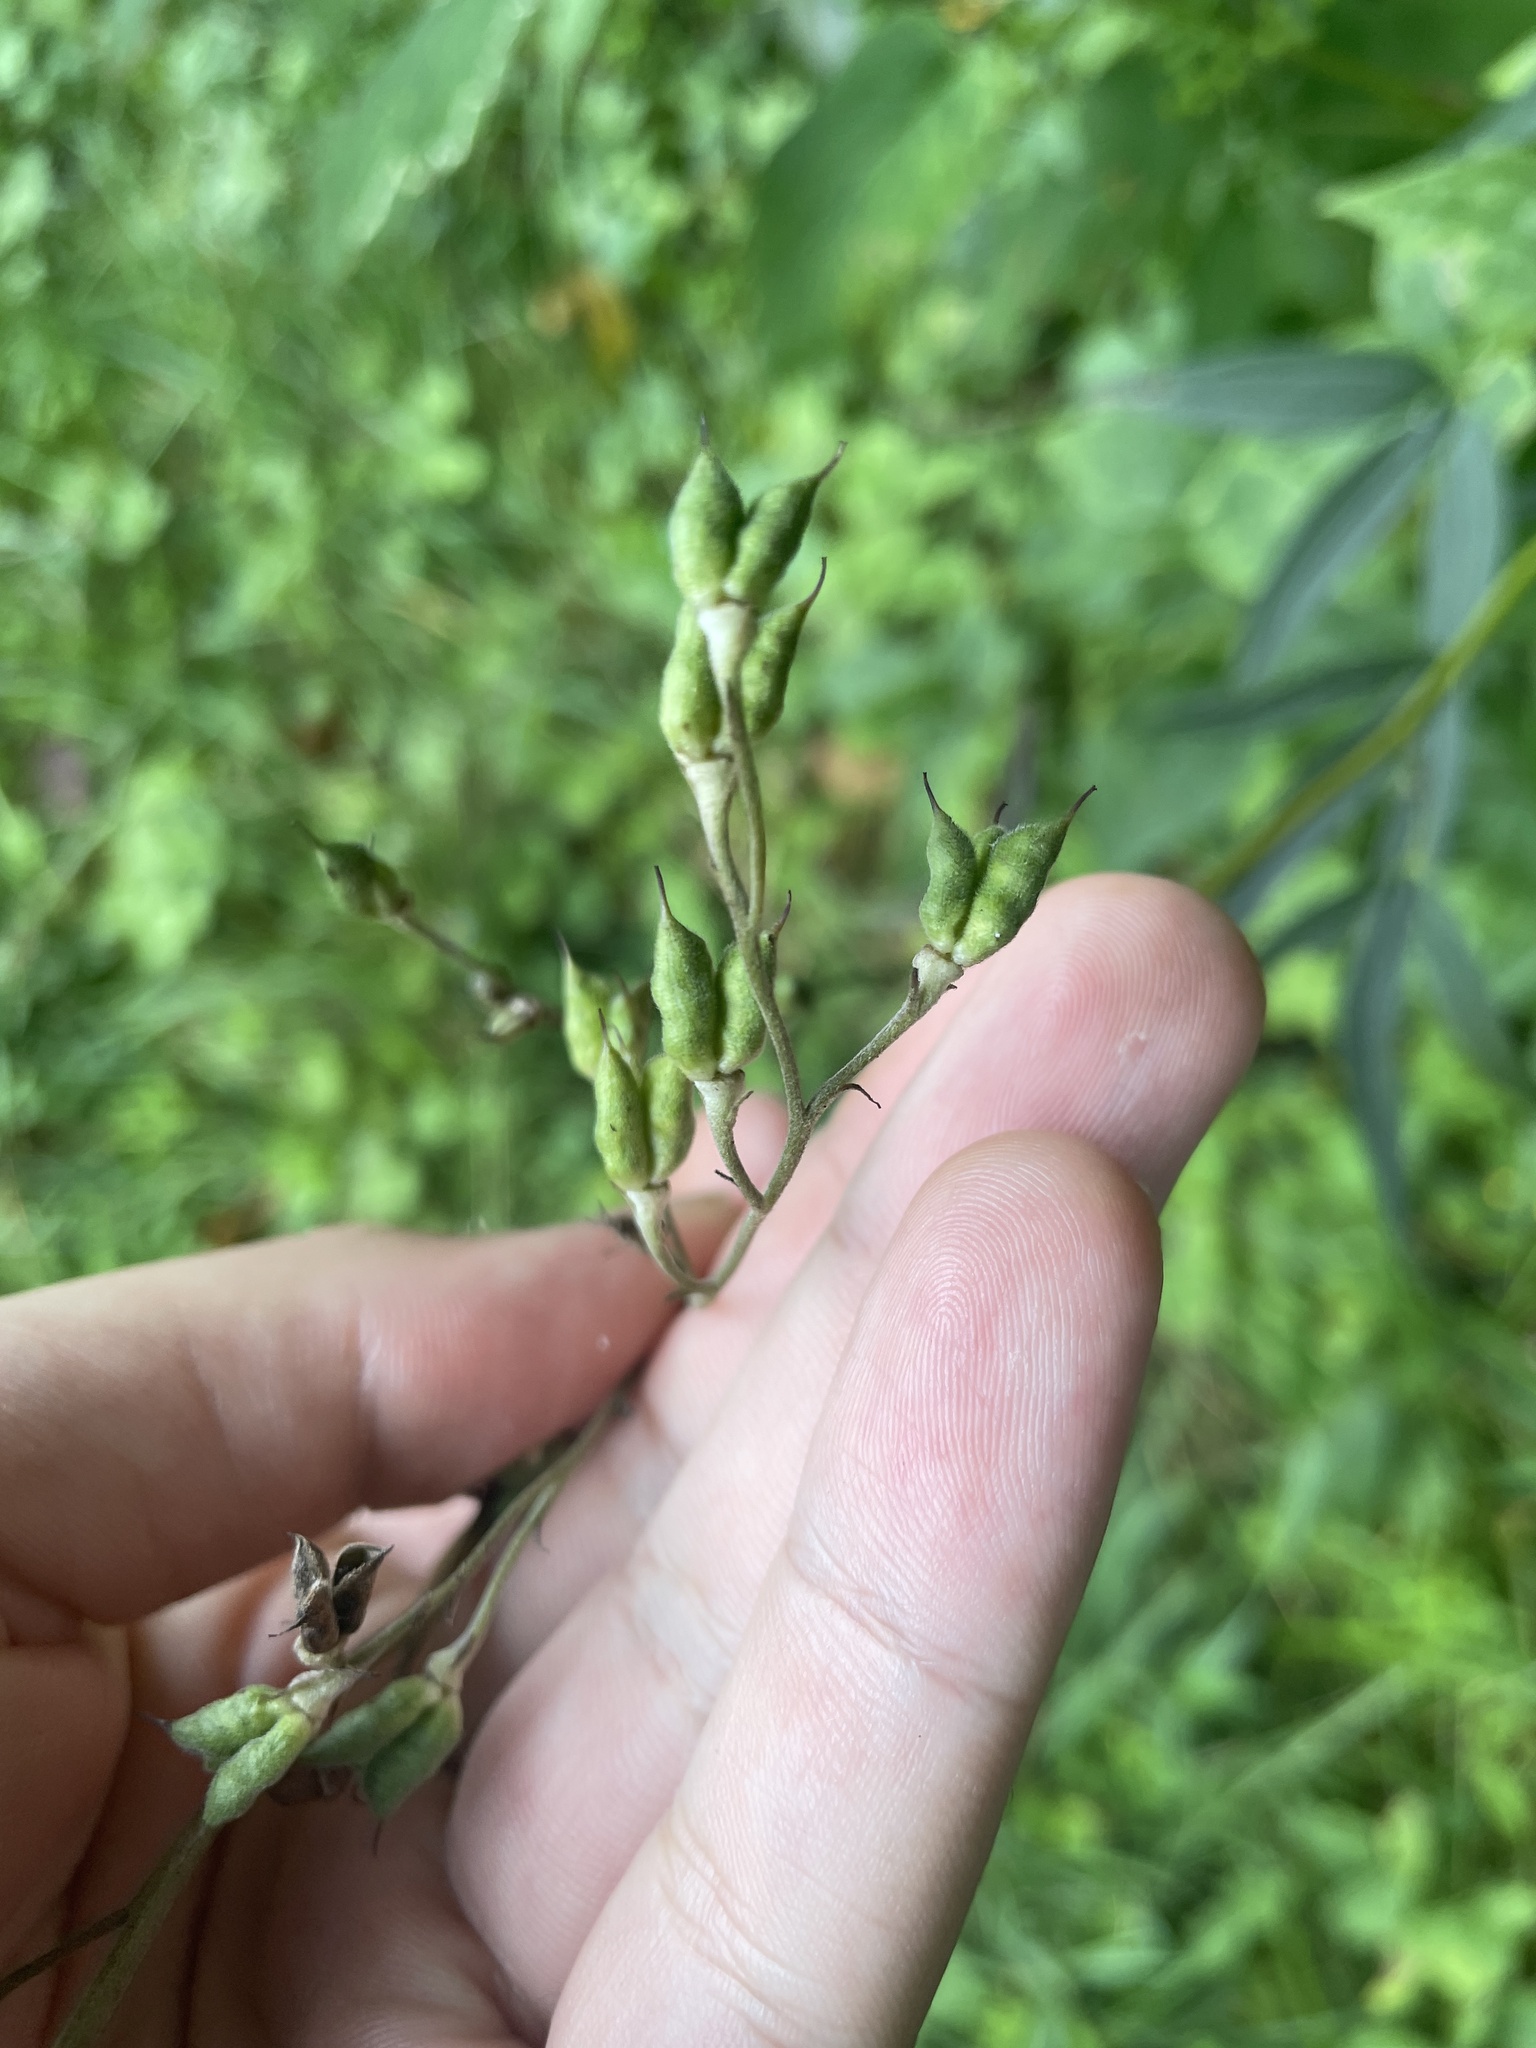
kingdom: Plantae
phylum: Tracheophyta
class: Magnoliopsida
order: Ranunculales
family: Ranunculaceae
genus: Delphinium
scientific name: Delphinium exaltatum
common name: Tall larkspur
